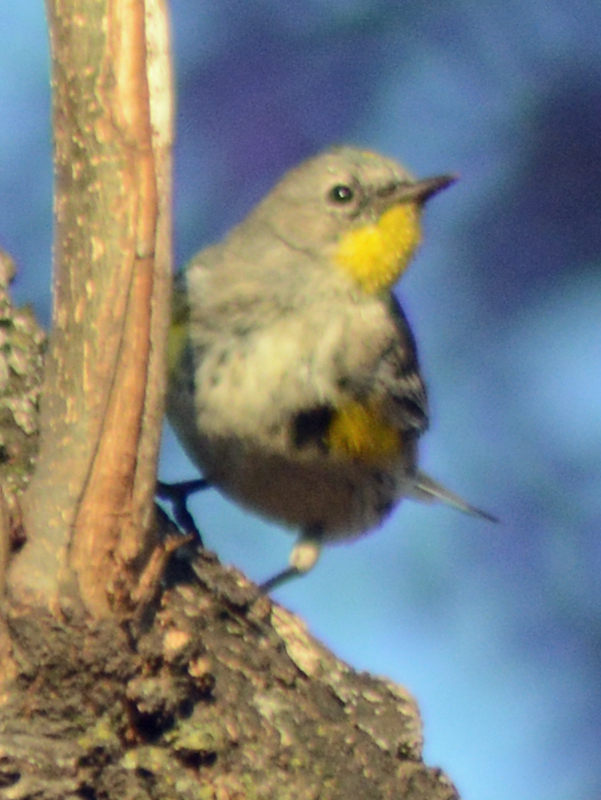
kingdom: Animalia
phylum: Chordata
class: Aves
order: Passeriformes
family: Parulidae
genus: Setophaga
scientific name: Setophaga coronata
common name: Myrtle warbler
